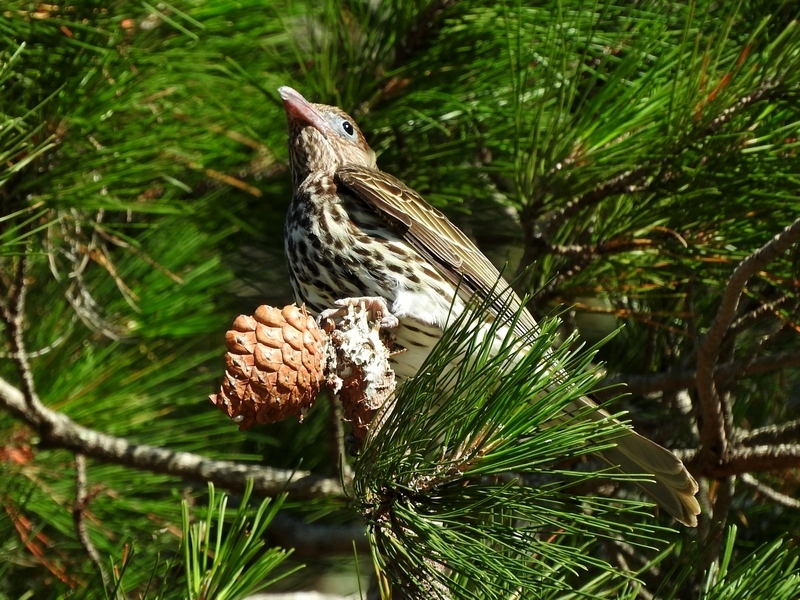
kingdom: Animalia
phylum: Chordata
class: Aves
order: Passeriformes
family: Oriolidae
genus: Sphecotheres
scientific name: Sphecotheres vieilloti
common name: Australasian figbird
